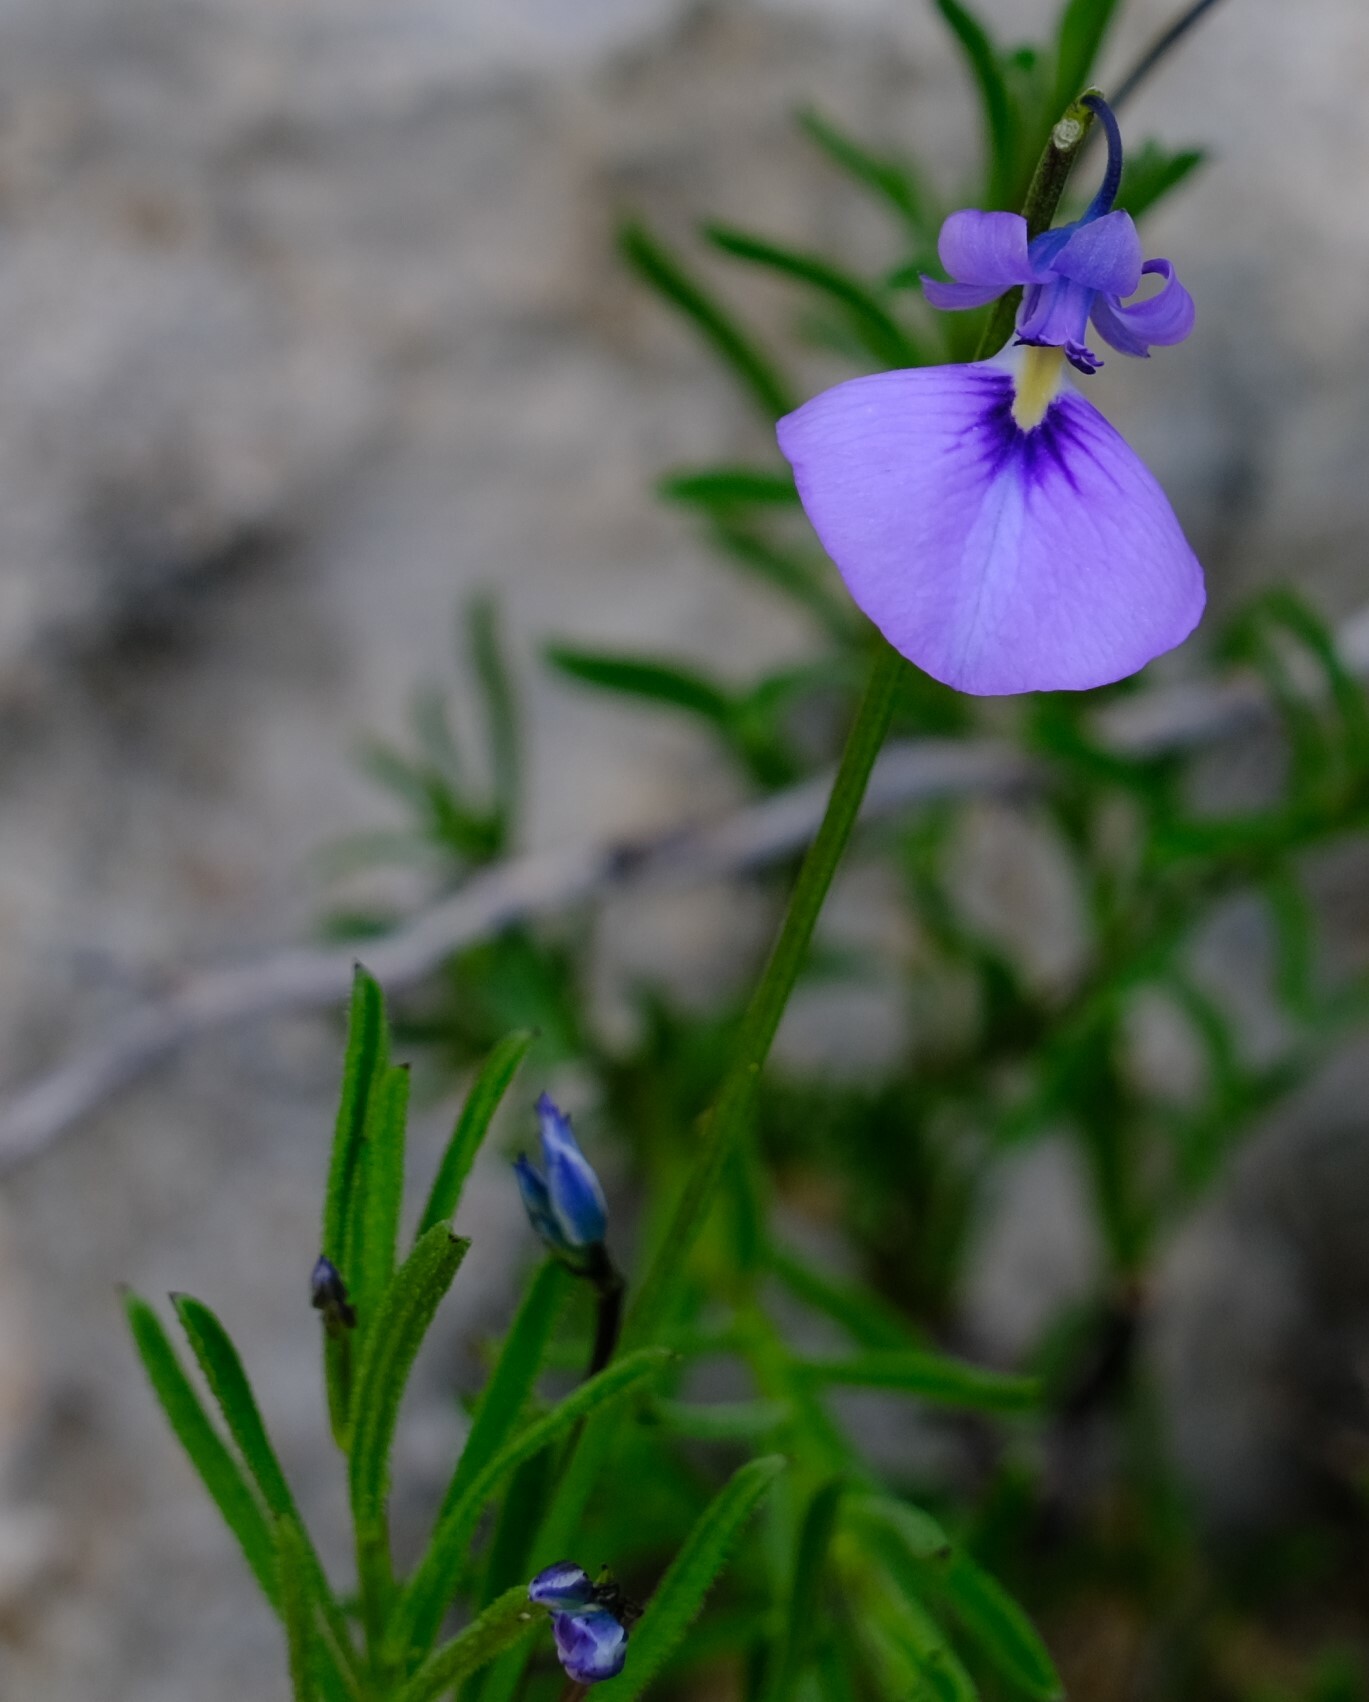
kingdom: Plantae
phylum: Tracheophyta
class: Magnoliopsida
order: Malpighiales
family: Violaceae
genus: Pigea
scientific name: Pigea calycina
